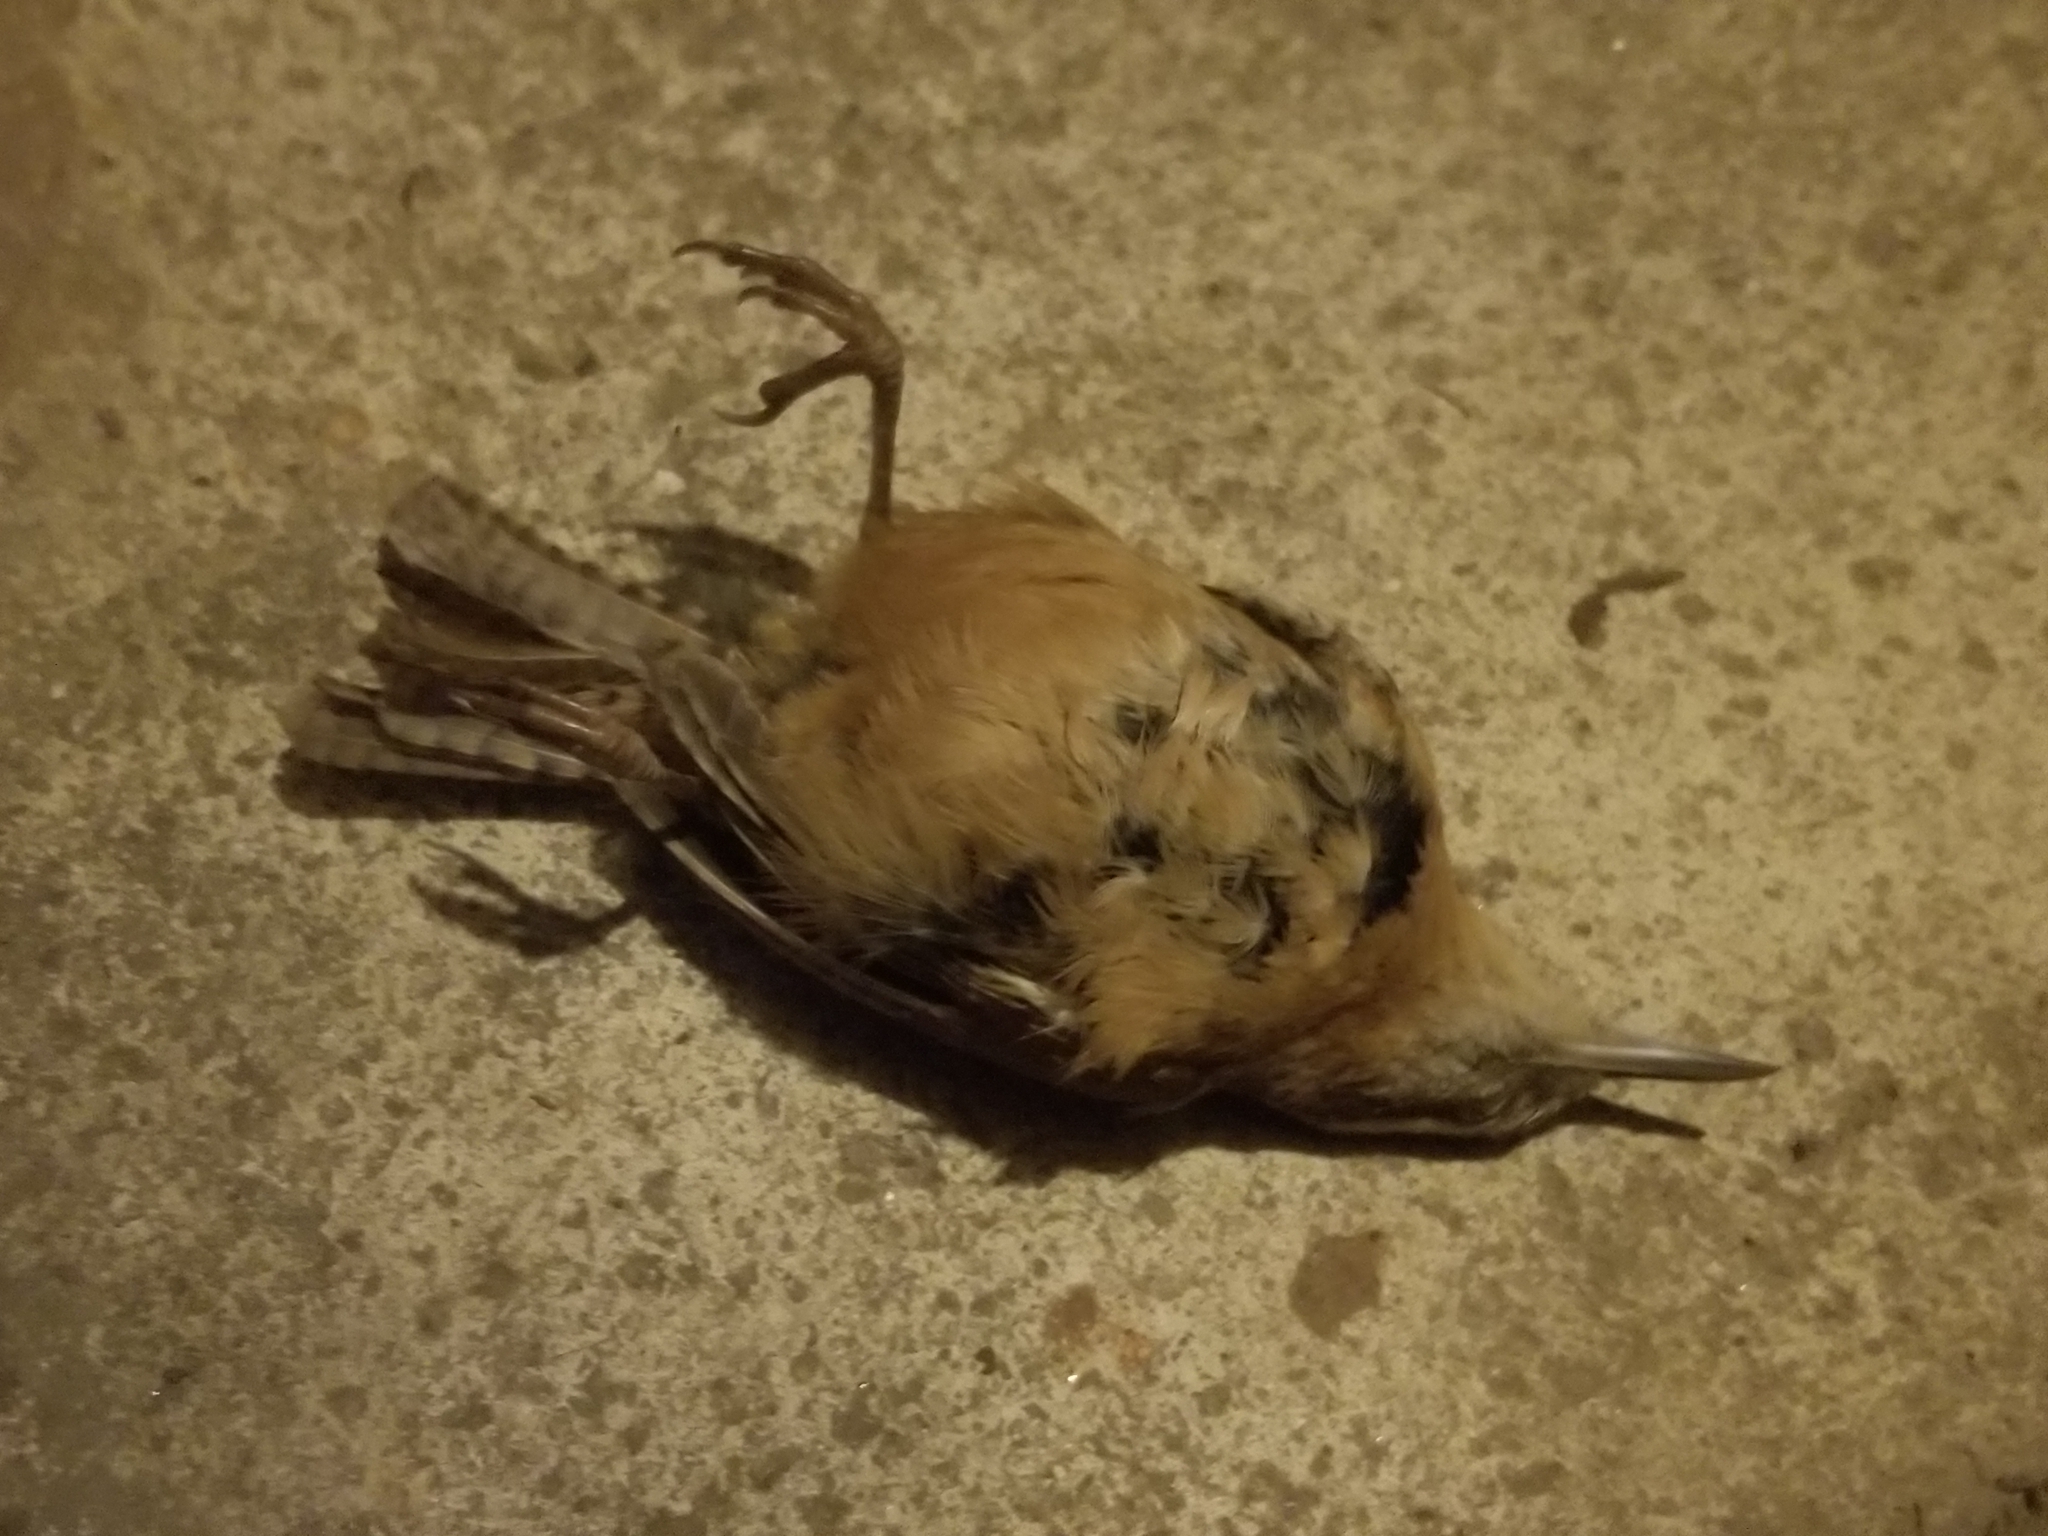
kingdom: Animalia
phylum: Chordata
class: Aves
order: Passeriformes
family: Troglodytidae
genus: Thryothorus
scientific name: Thryothorus ludovicianus
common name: Carolina wren
